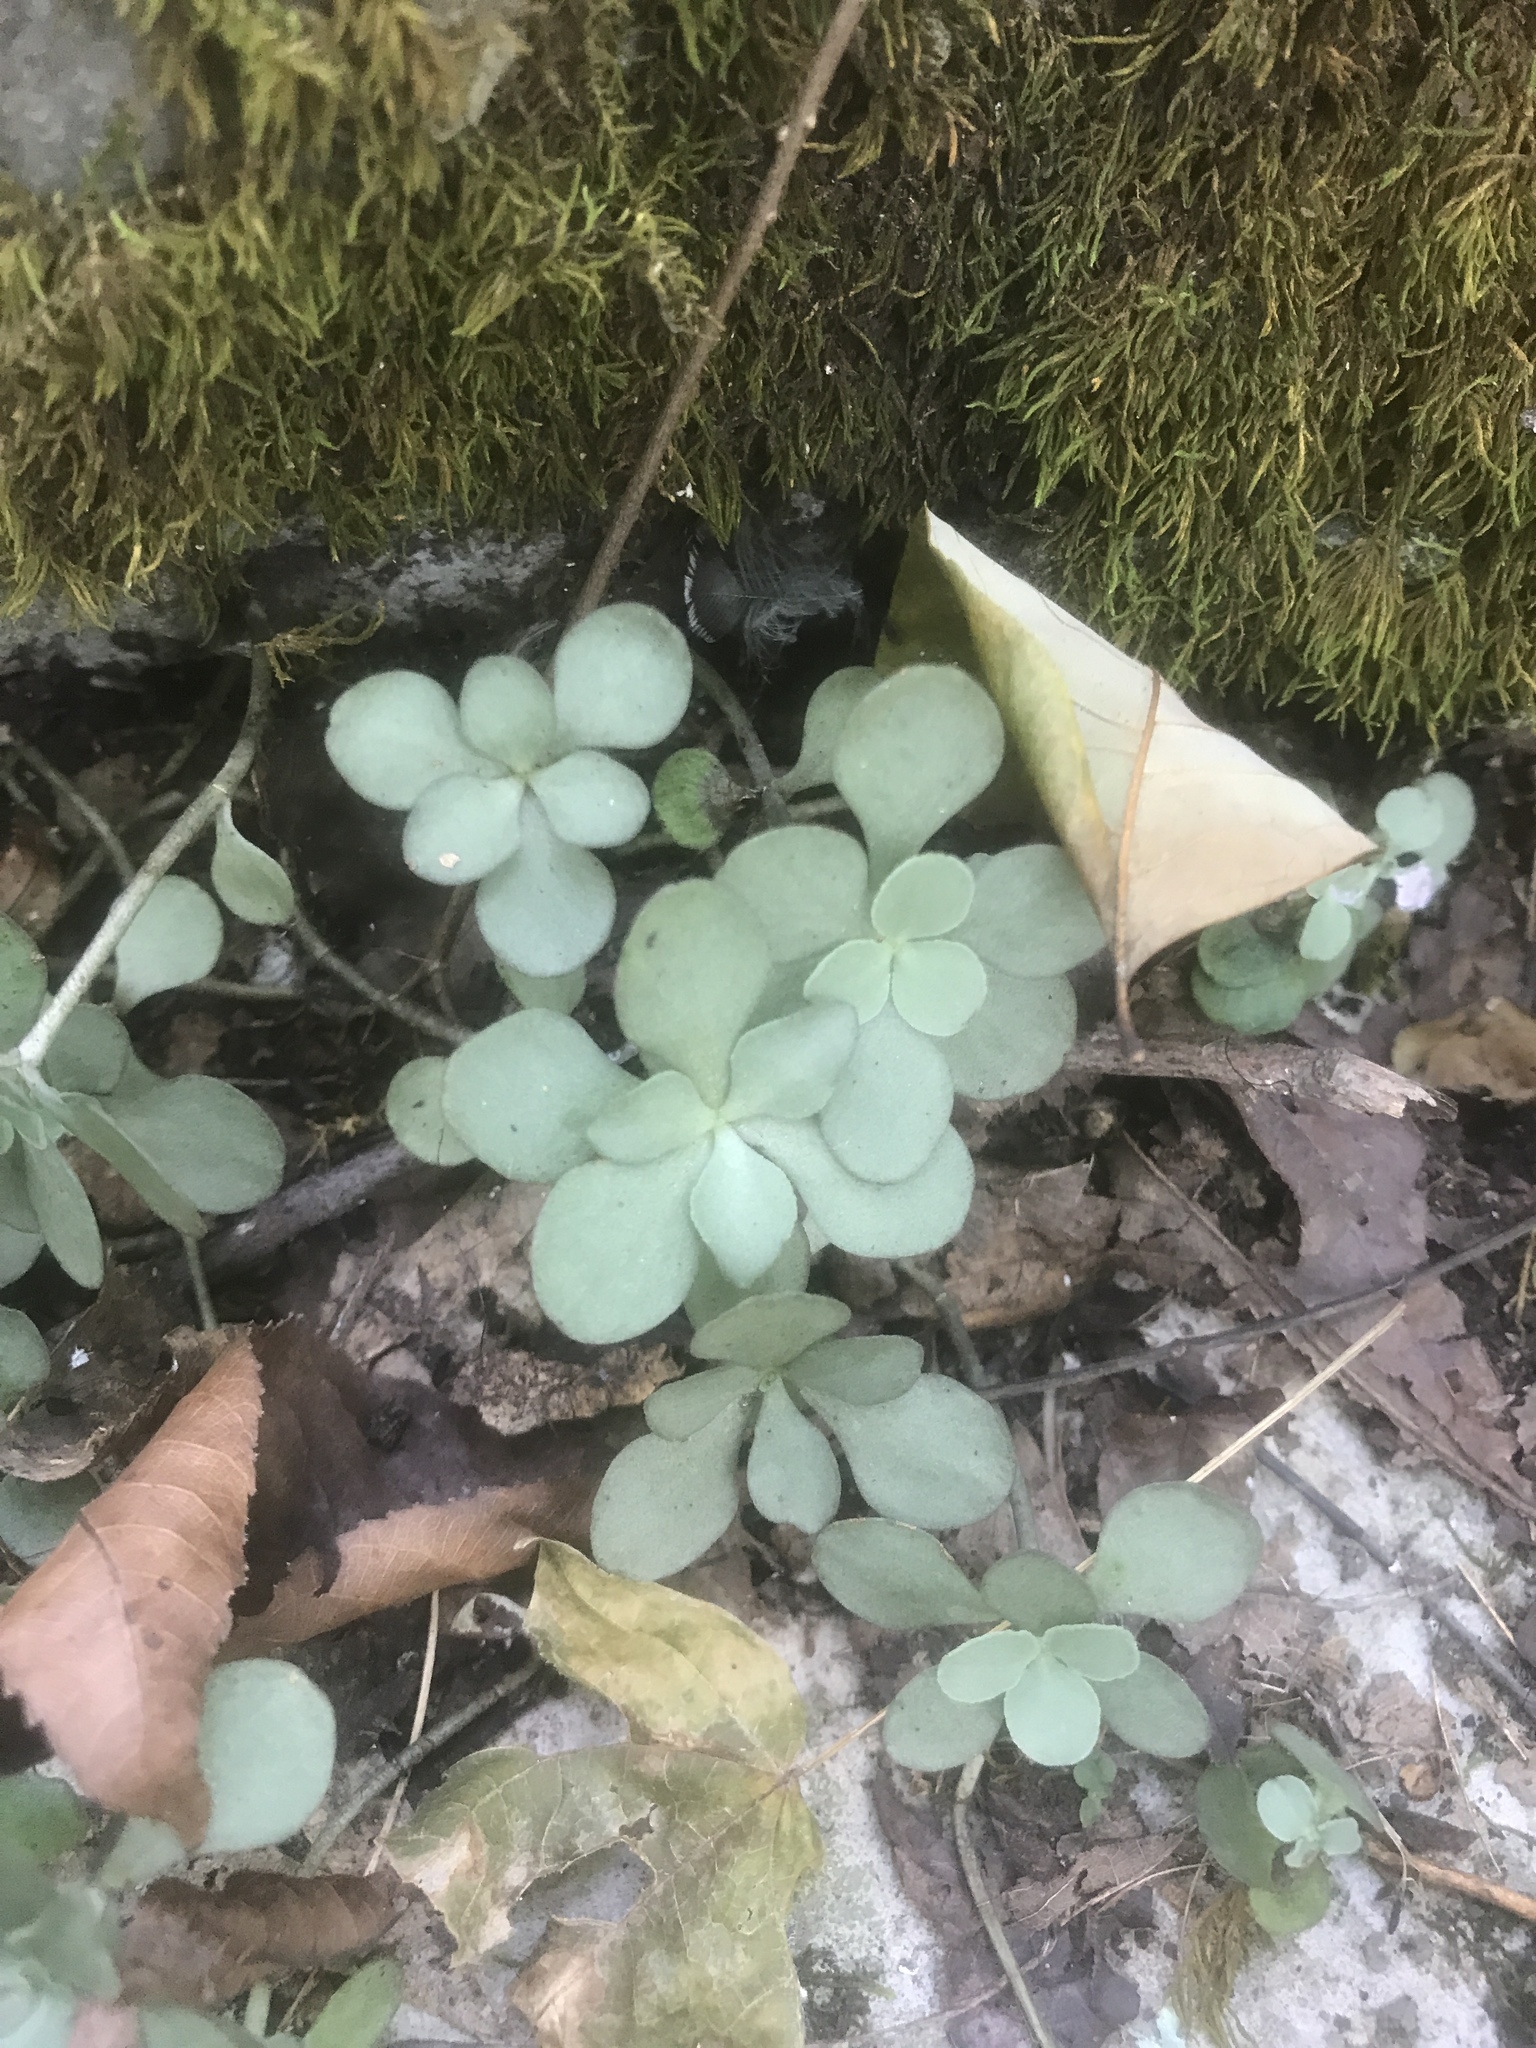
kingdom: Plantae
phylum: Tracheophyta
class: Magnoliopsida
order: Saxifragales
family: Crassulaceae
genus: Sedum
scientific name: Sedum ternatum
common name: Wild stonecrop
